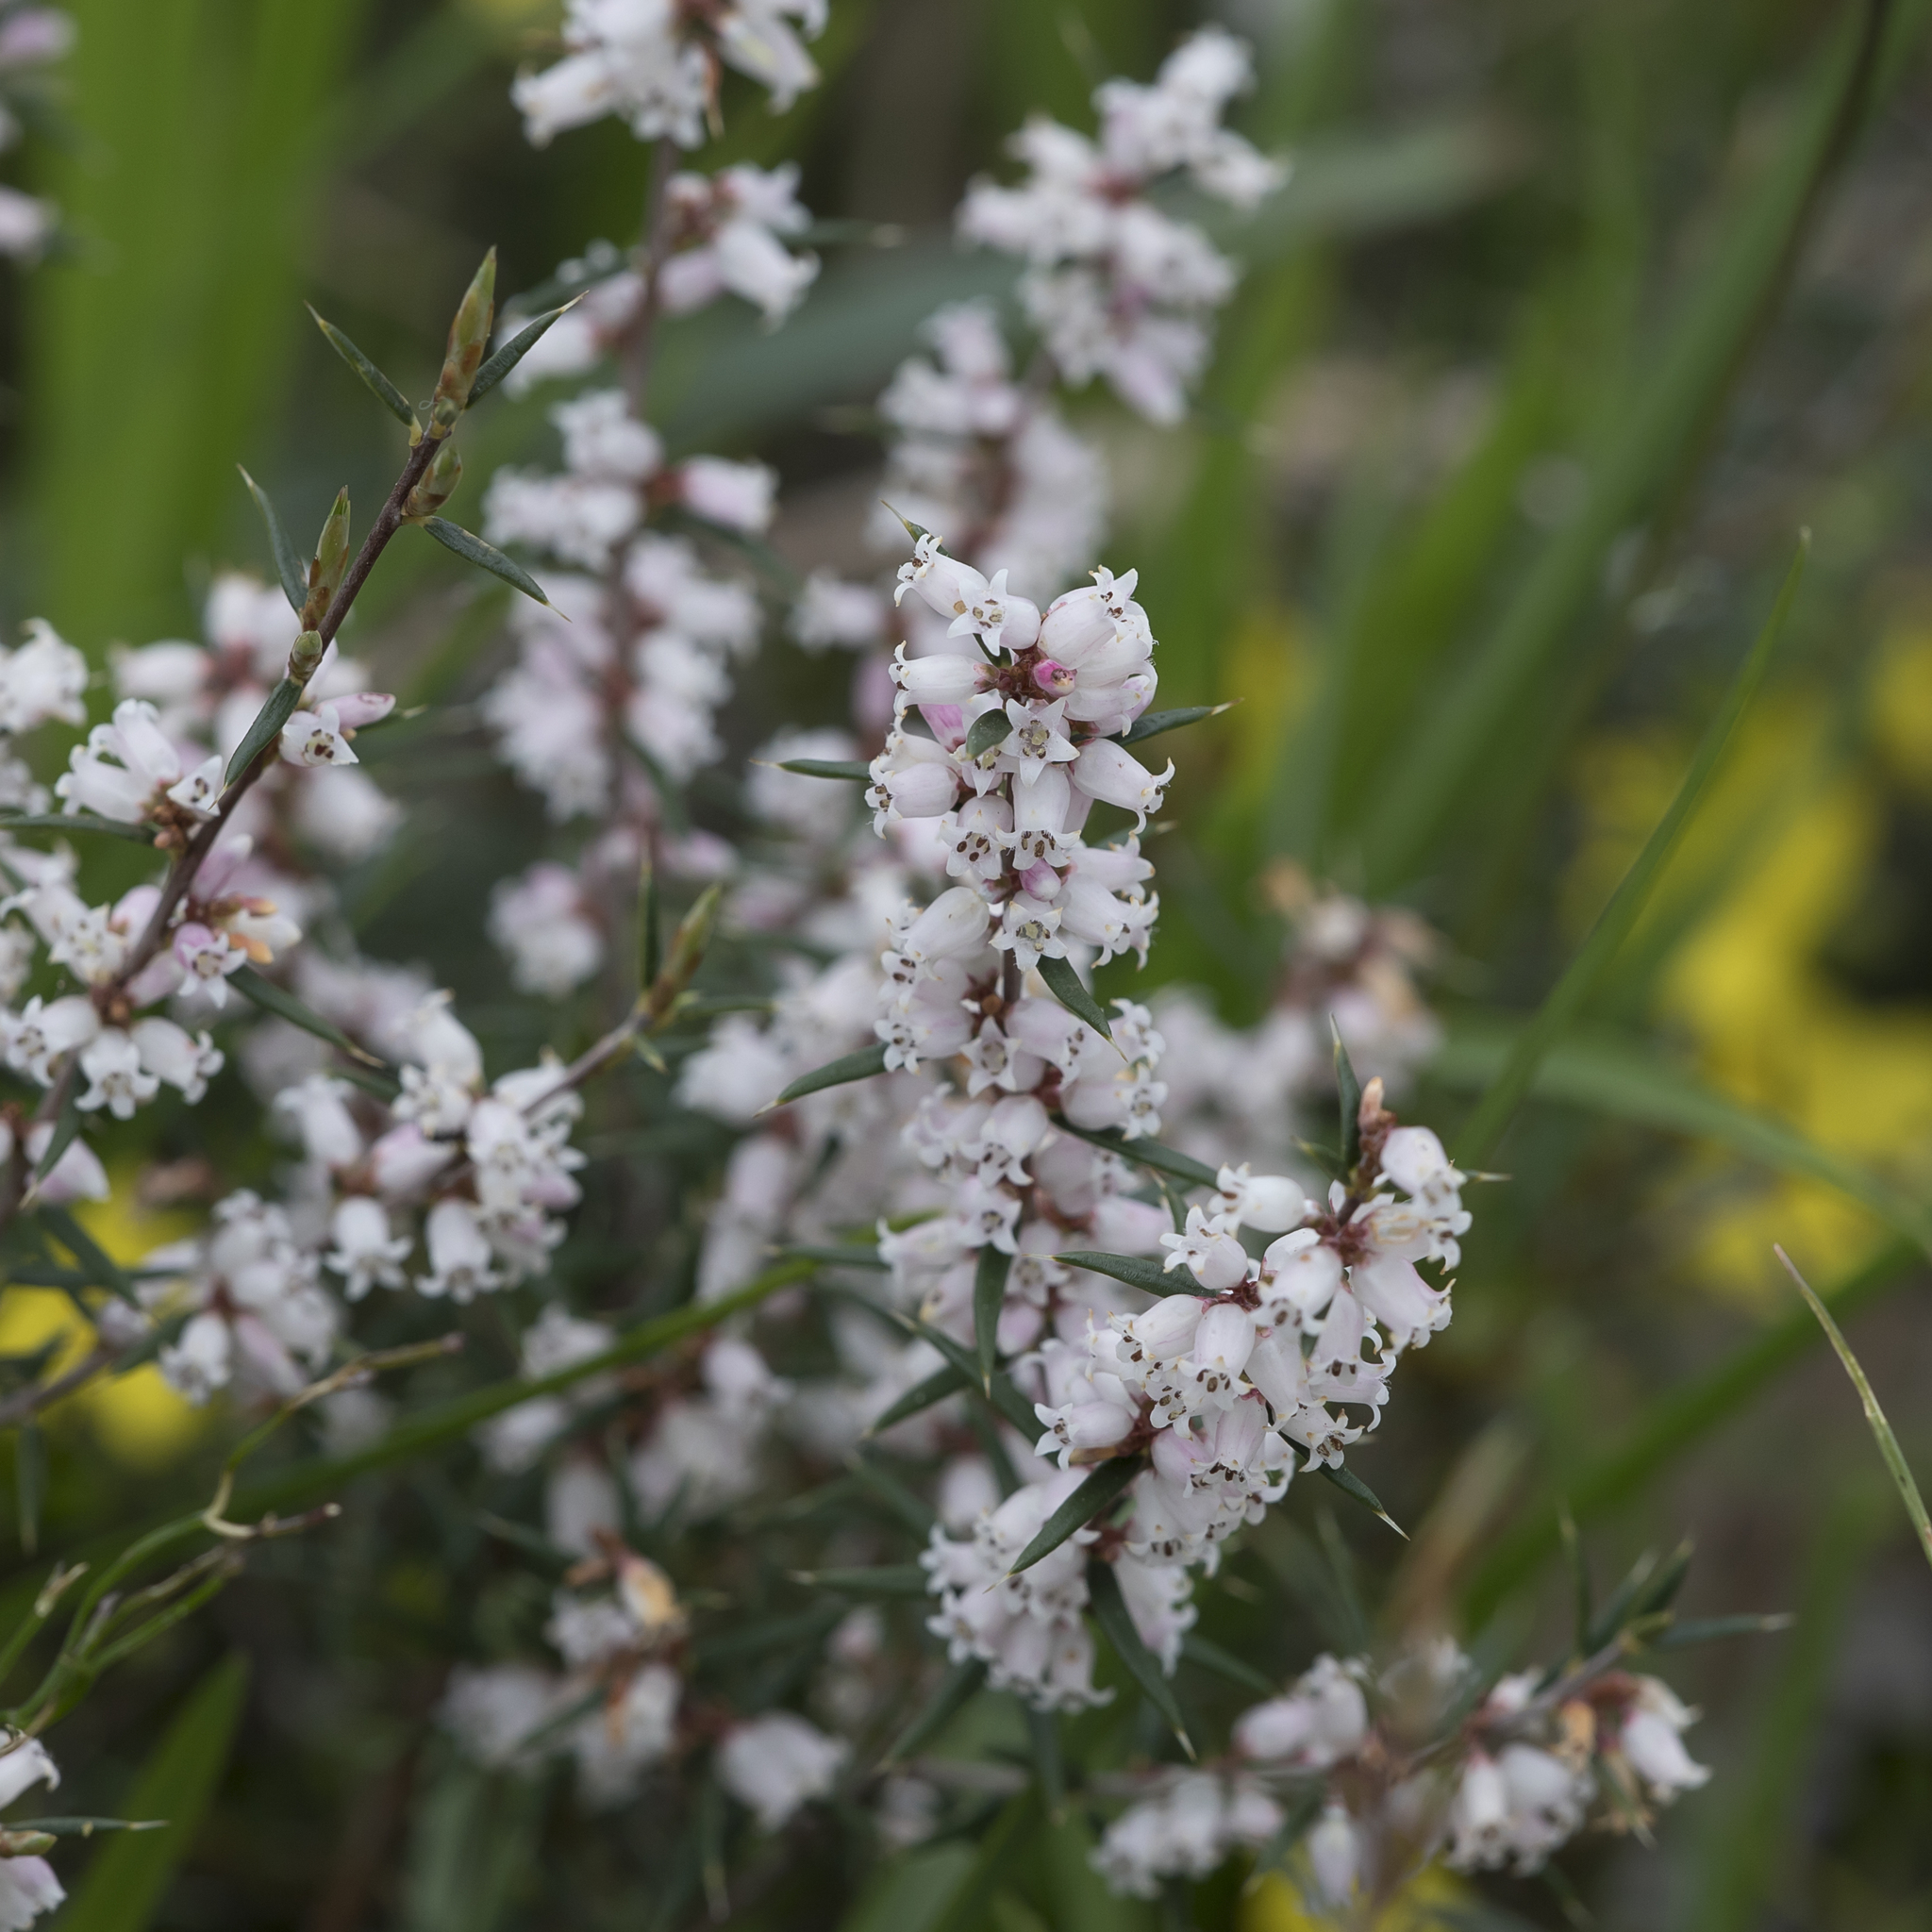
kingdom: Plantae
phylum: Tracheophyta
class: Magnoliopsida
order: Ericales
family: Ericaceae
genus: Lissanthe
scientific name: Lissanthe strigosa
